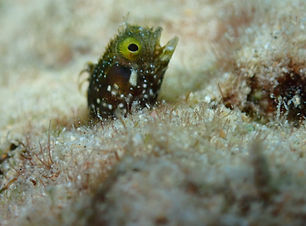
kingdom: Animalia
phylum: Chordata
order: Perciformes
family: Chaenopsidae
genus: Acanthemblemaria
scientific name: Acanthemblemaria spinosa
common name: Spinyhead blenny
